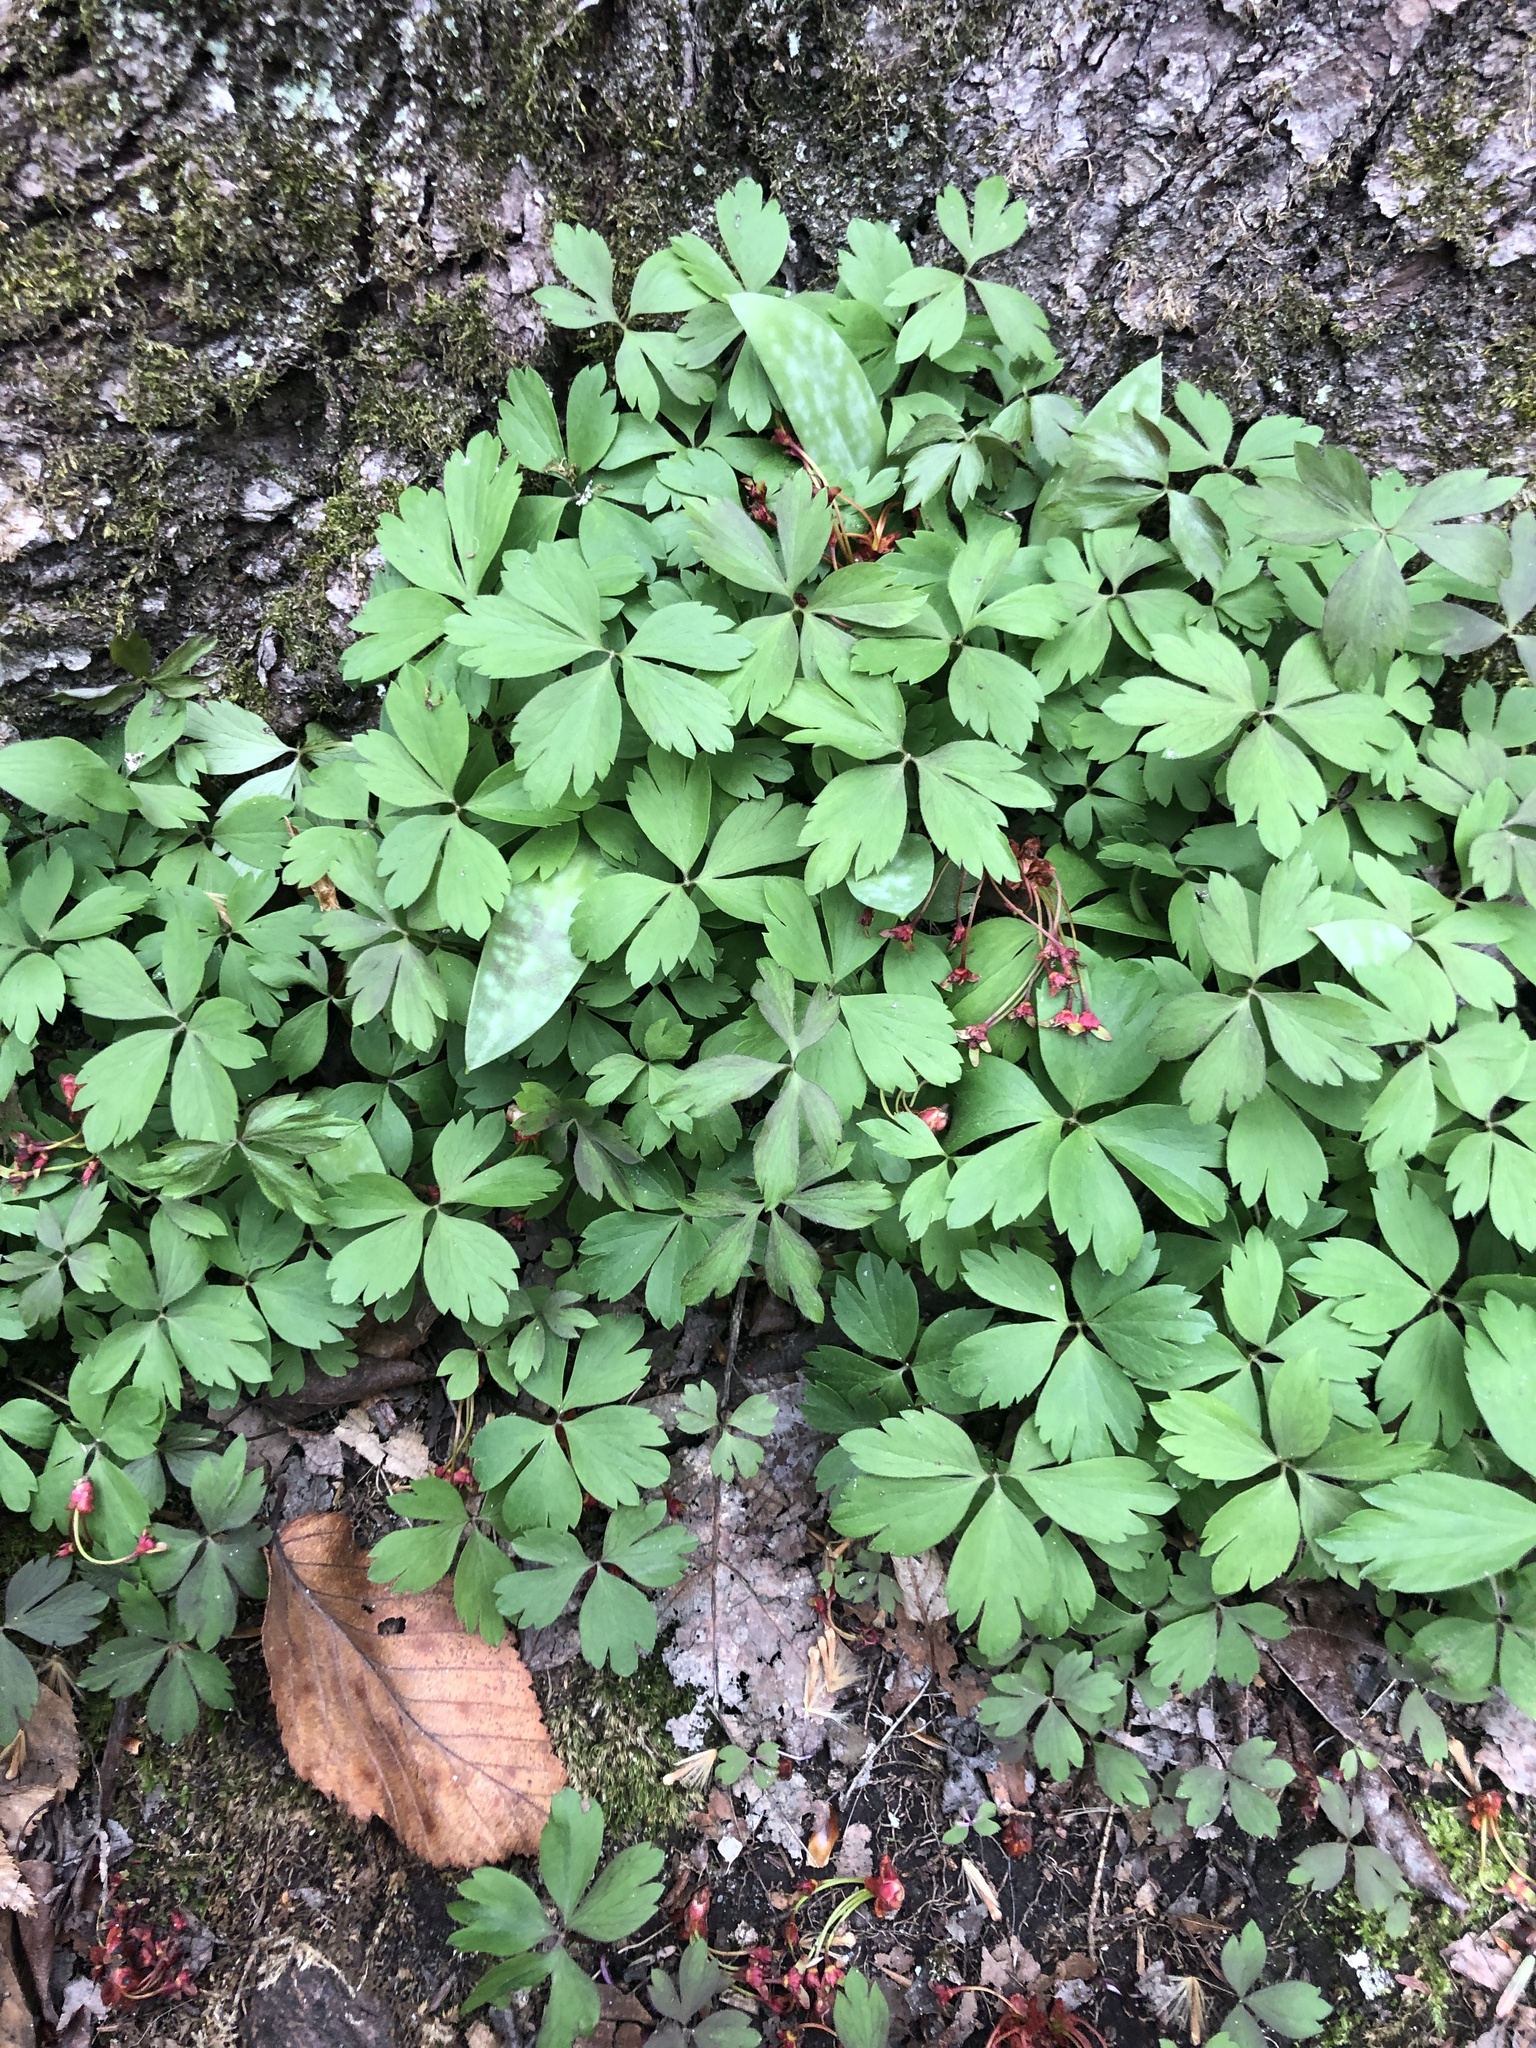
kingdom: Plantae
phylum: Tracheophyta
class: Magnoliopsida
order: Ranunculales
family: Ranunculaceae
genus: Anemone
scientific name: Anemone quinquefolia
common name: Wood anemone
